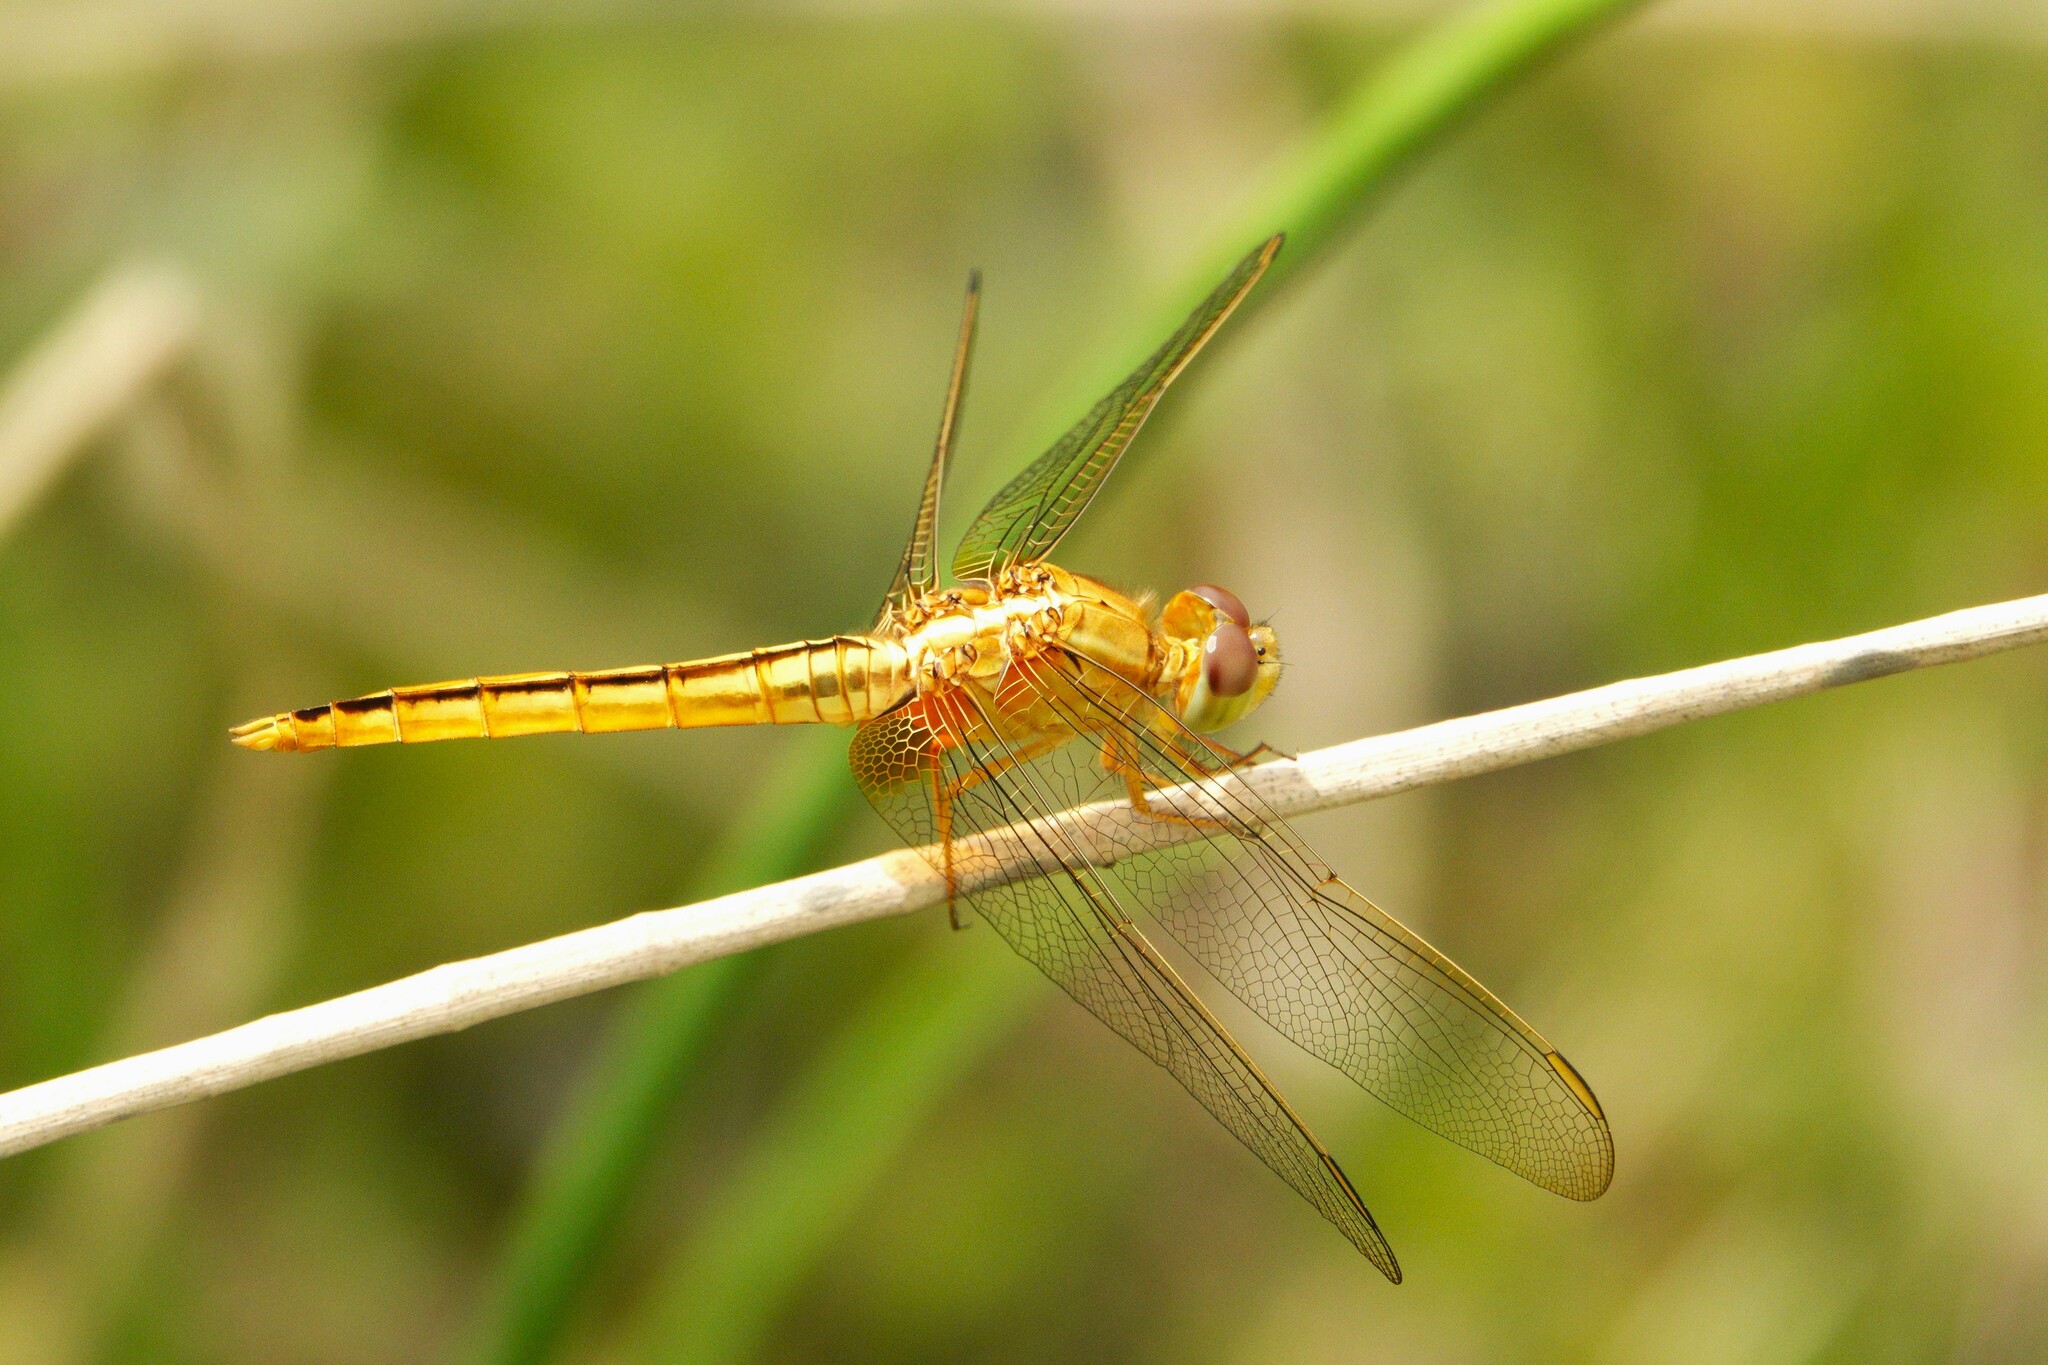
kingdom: Animalia
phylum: Arthropoda
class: Insecta
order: Odonata
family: Libellulidae
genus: Crocothemis
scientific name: Crocothemis servilia
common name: Scarlet skimmer
